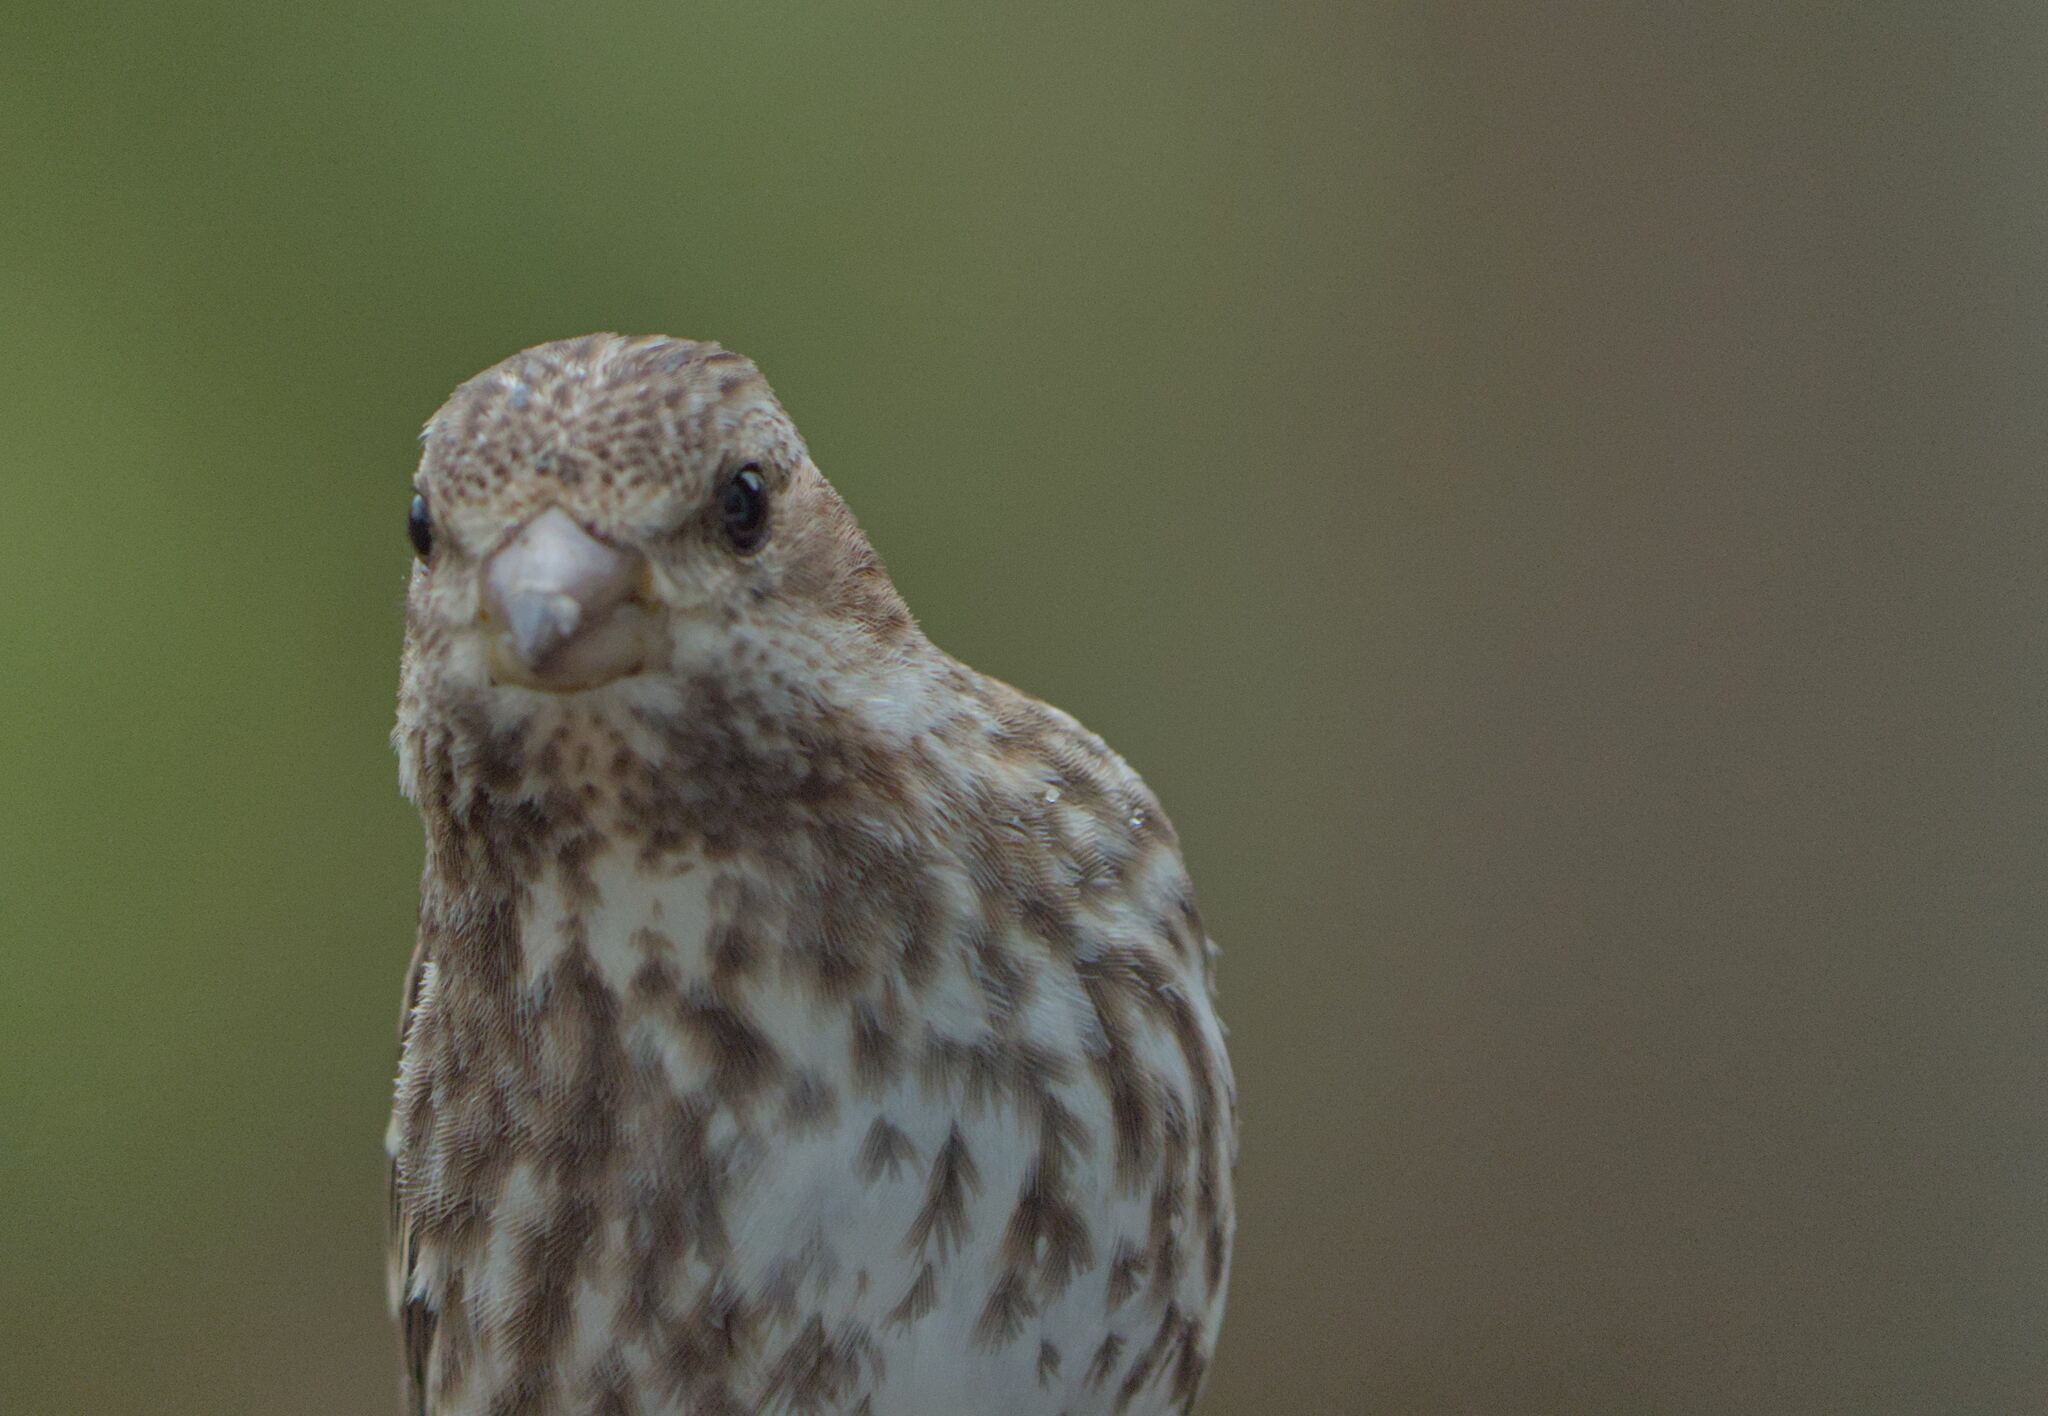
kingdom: Animalia
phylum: Chordata
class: Aves
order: Passeriformes
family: Fringillidae
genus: Haemorhous
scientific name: Haemorhous purpureus
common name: Purple finch
